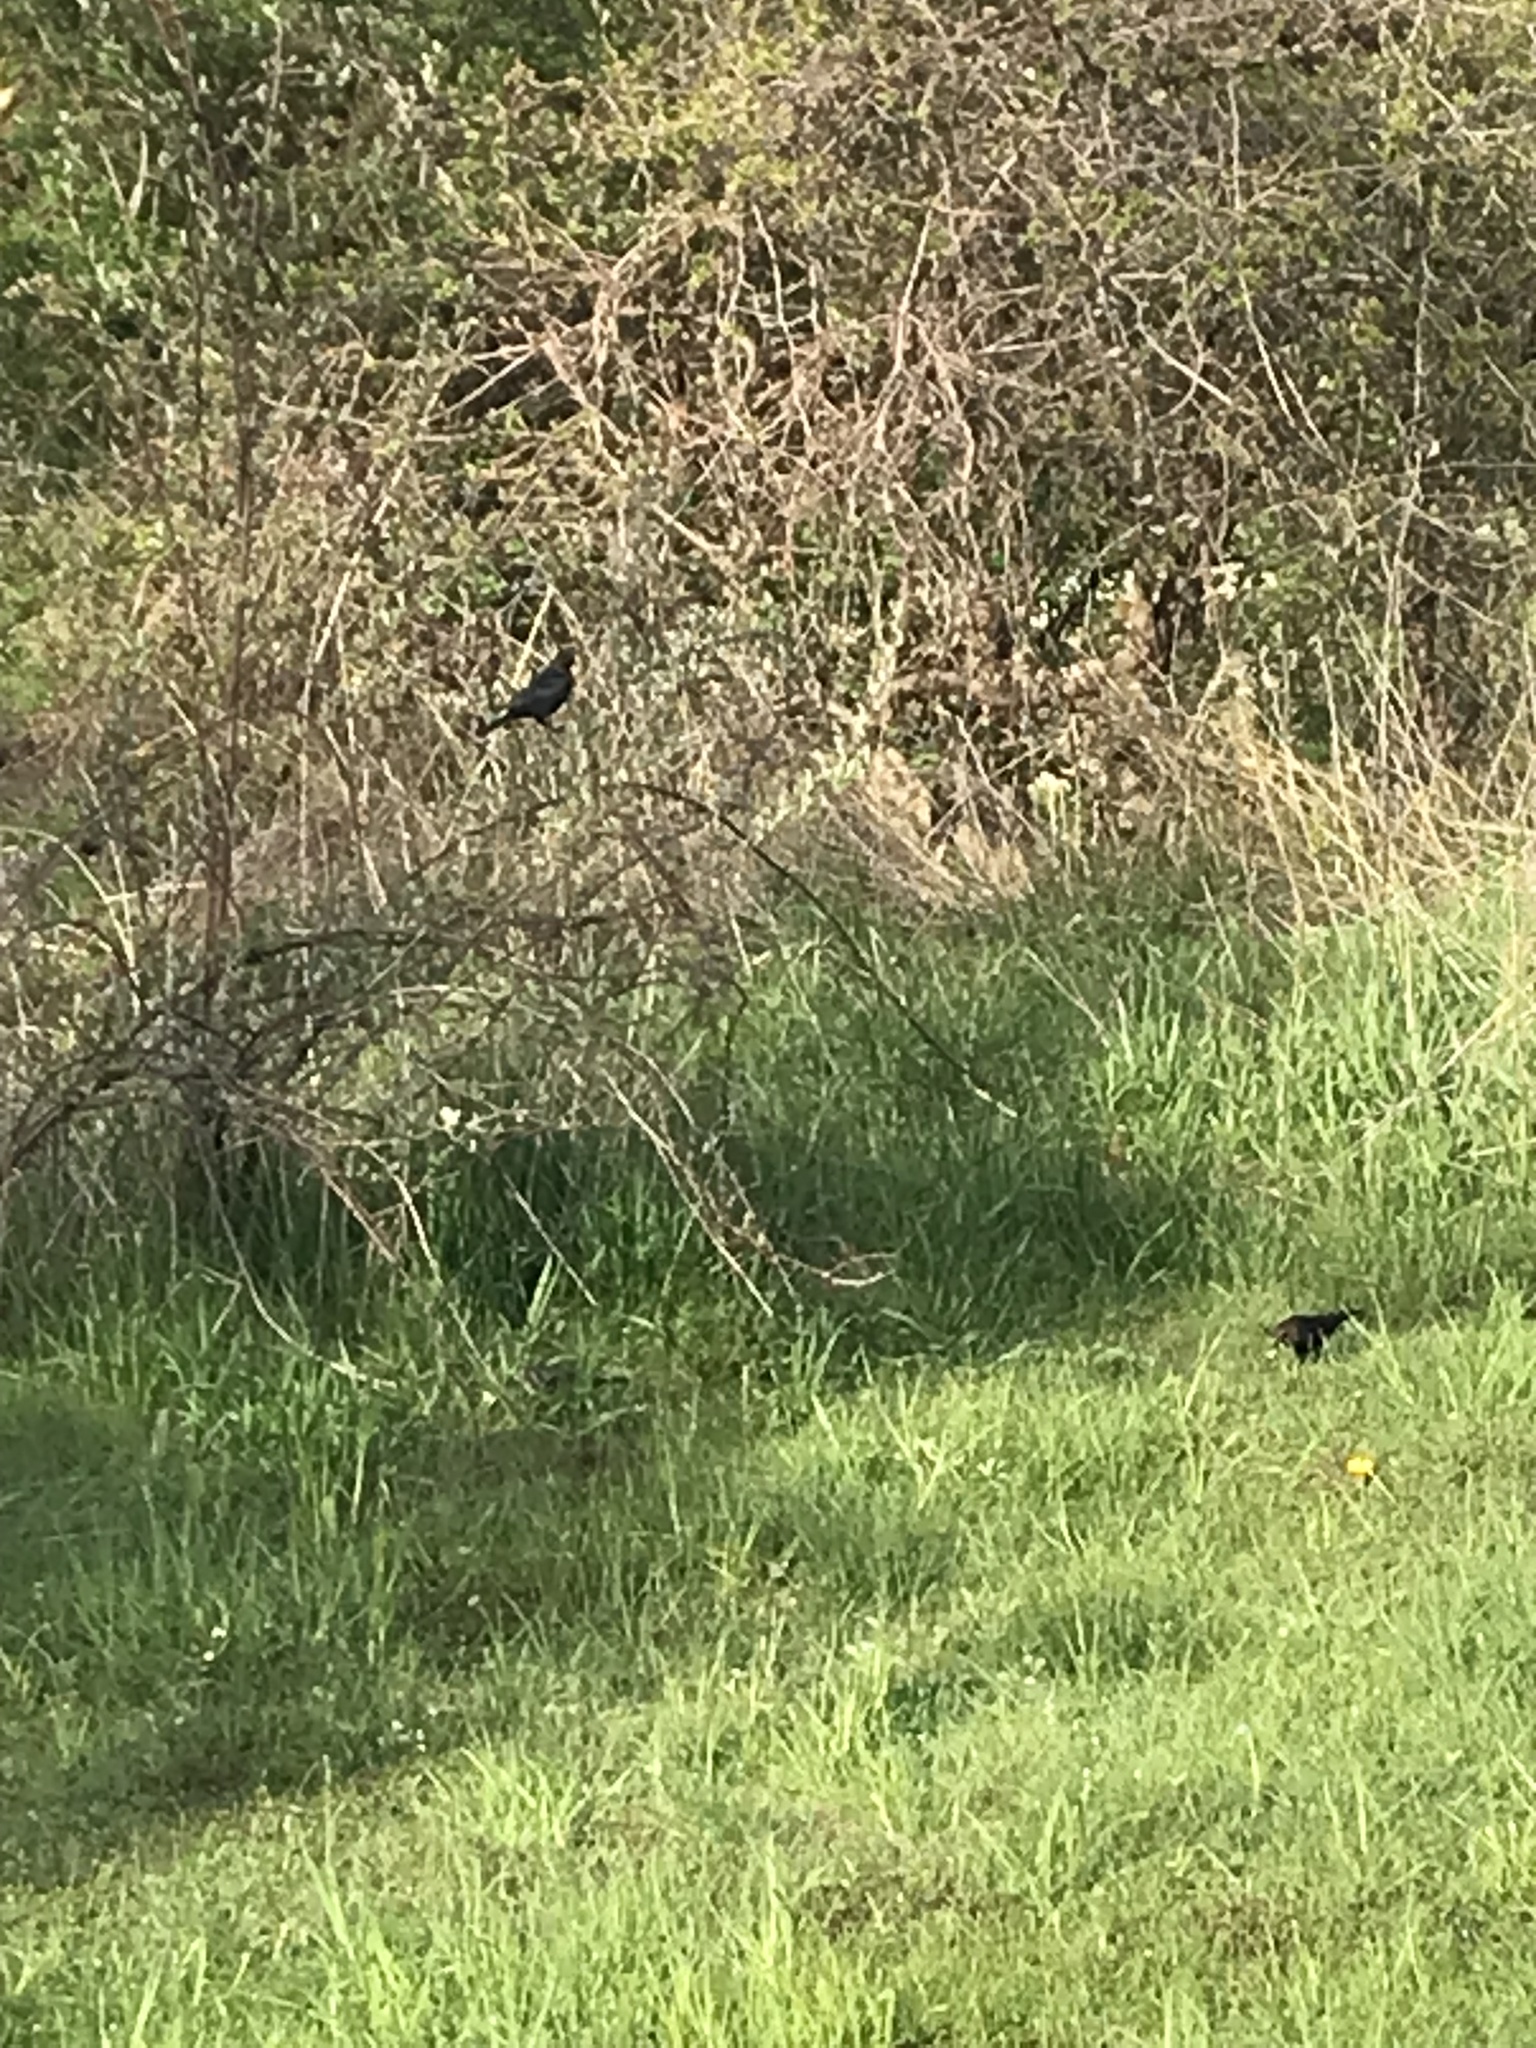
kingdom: Animalia
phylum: Chordata
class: Aves
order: Passeriformes
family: Icteridae
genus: Molothrus
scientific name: Molothrus ater
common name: Brown-headed cowbird
